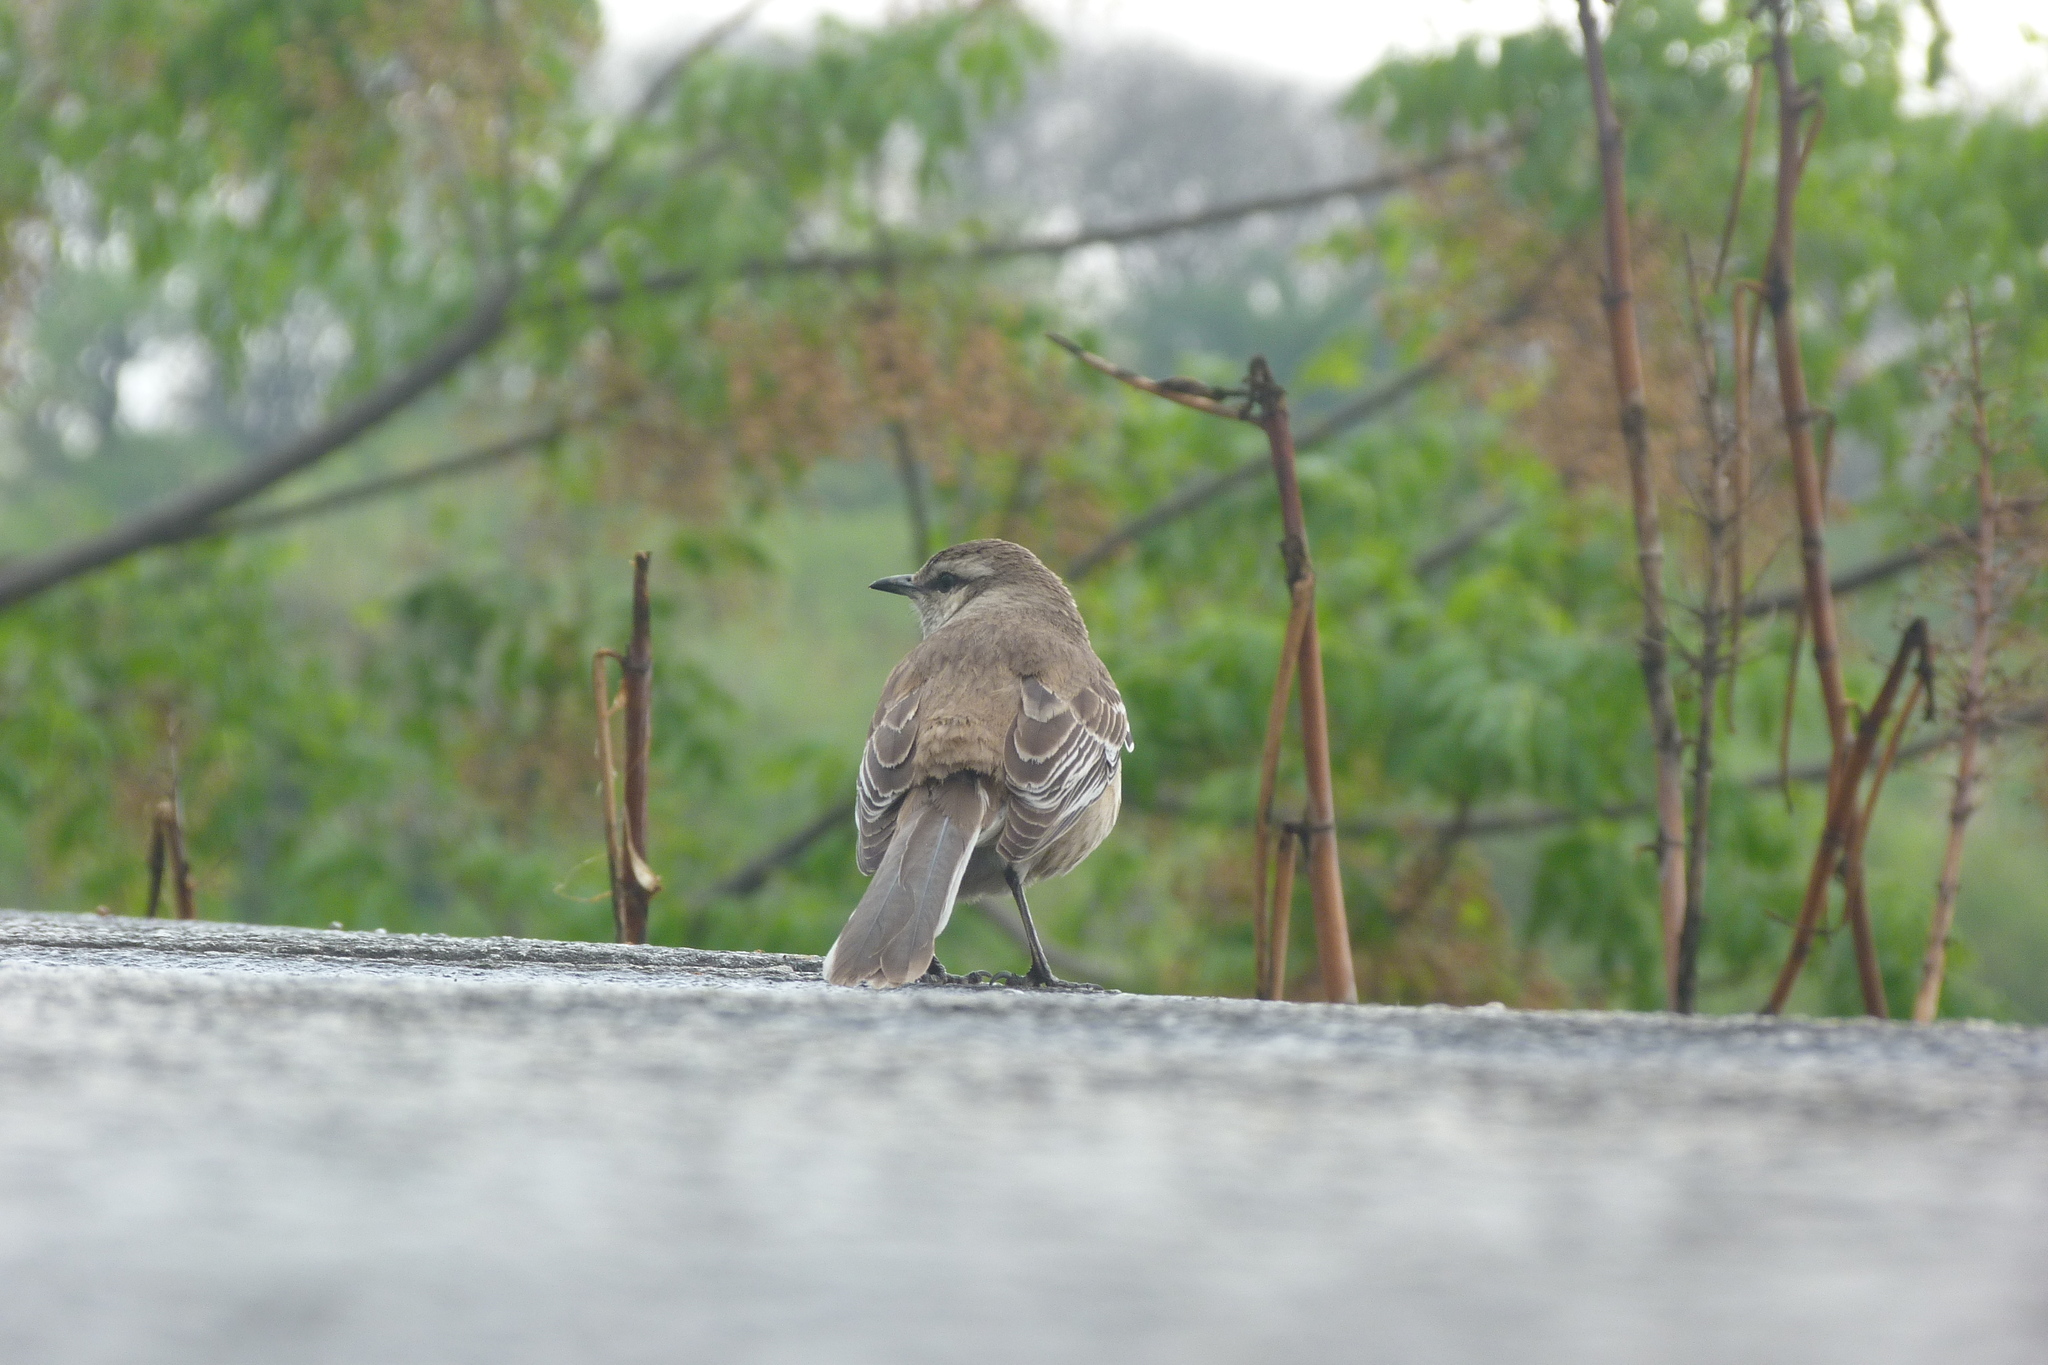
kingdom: Animalia
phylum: Chordata
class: Aves
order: Passeriformes
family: Mimidae
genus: Mimus
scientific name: Mimus saturninus
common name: Chalk-browed mockingbird
